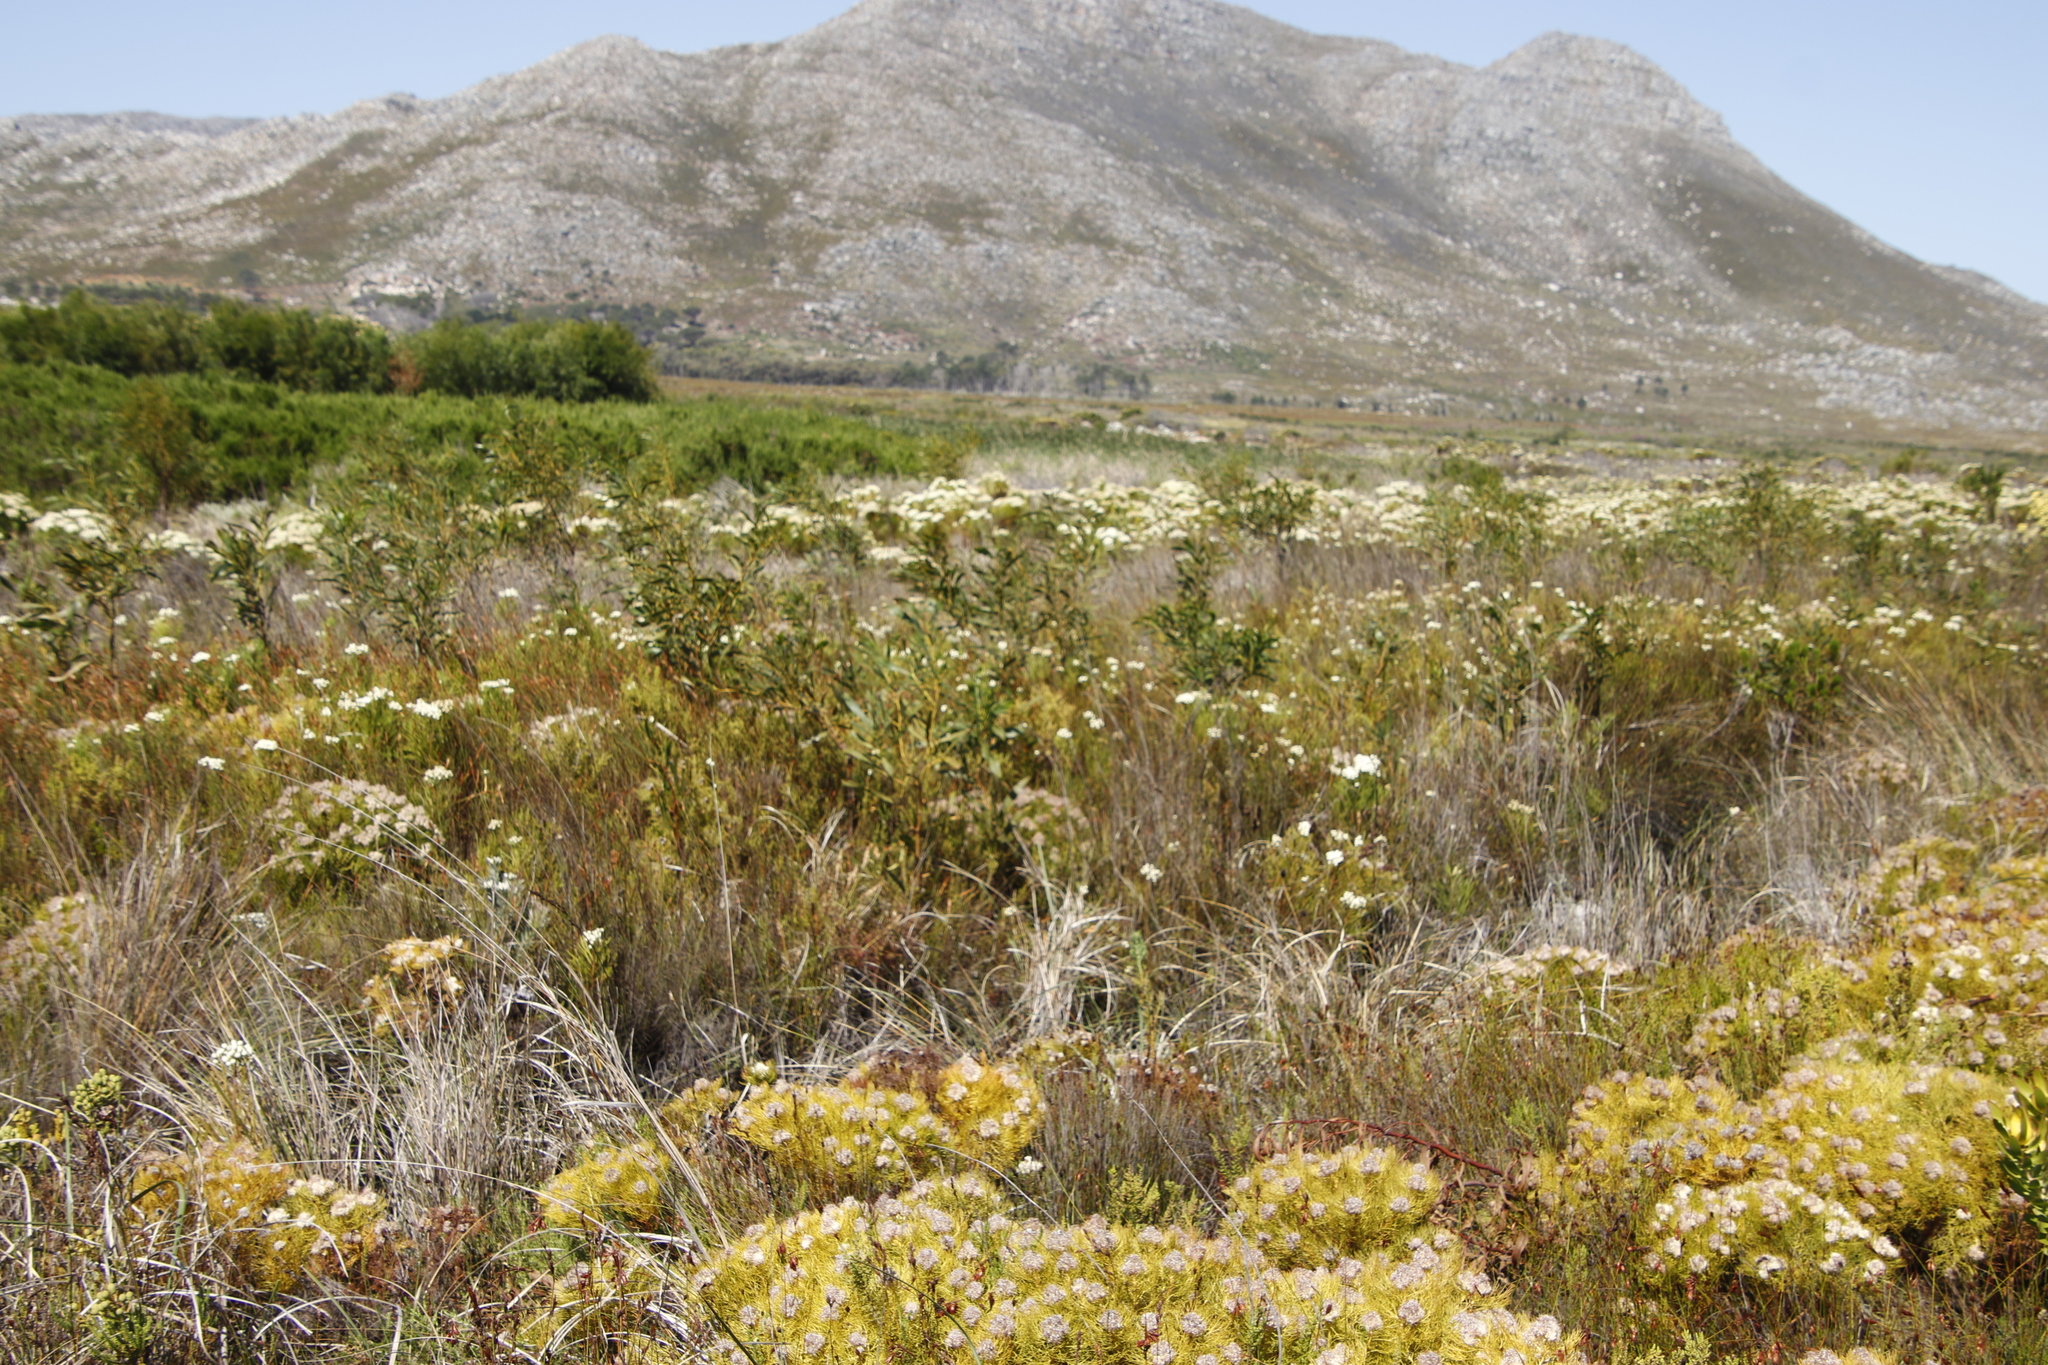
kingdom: Plantae
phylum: Tracheophyta
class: Magnoliopsida
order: Fabales
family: Fabaceae
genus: Acacia
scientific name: Acacia saligna
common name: Orange wattle
